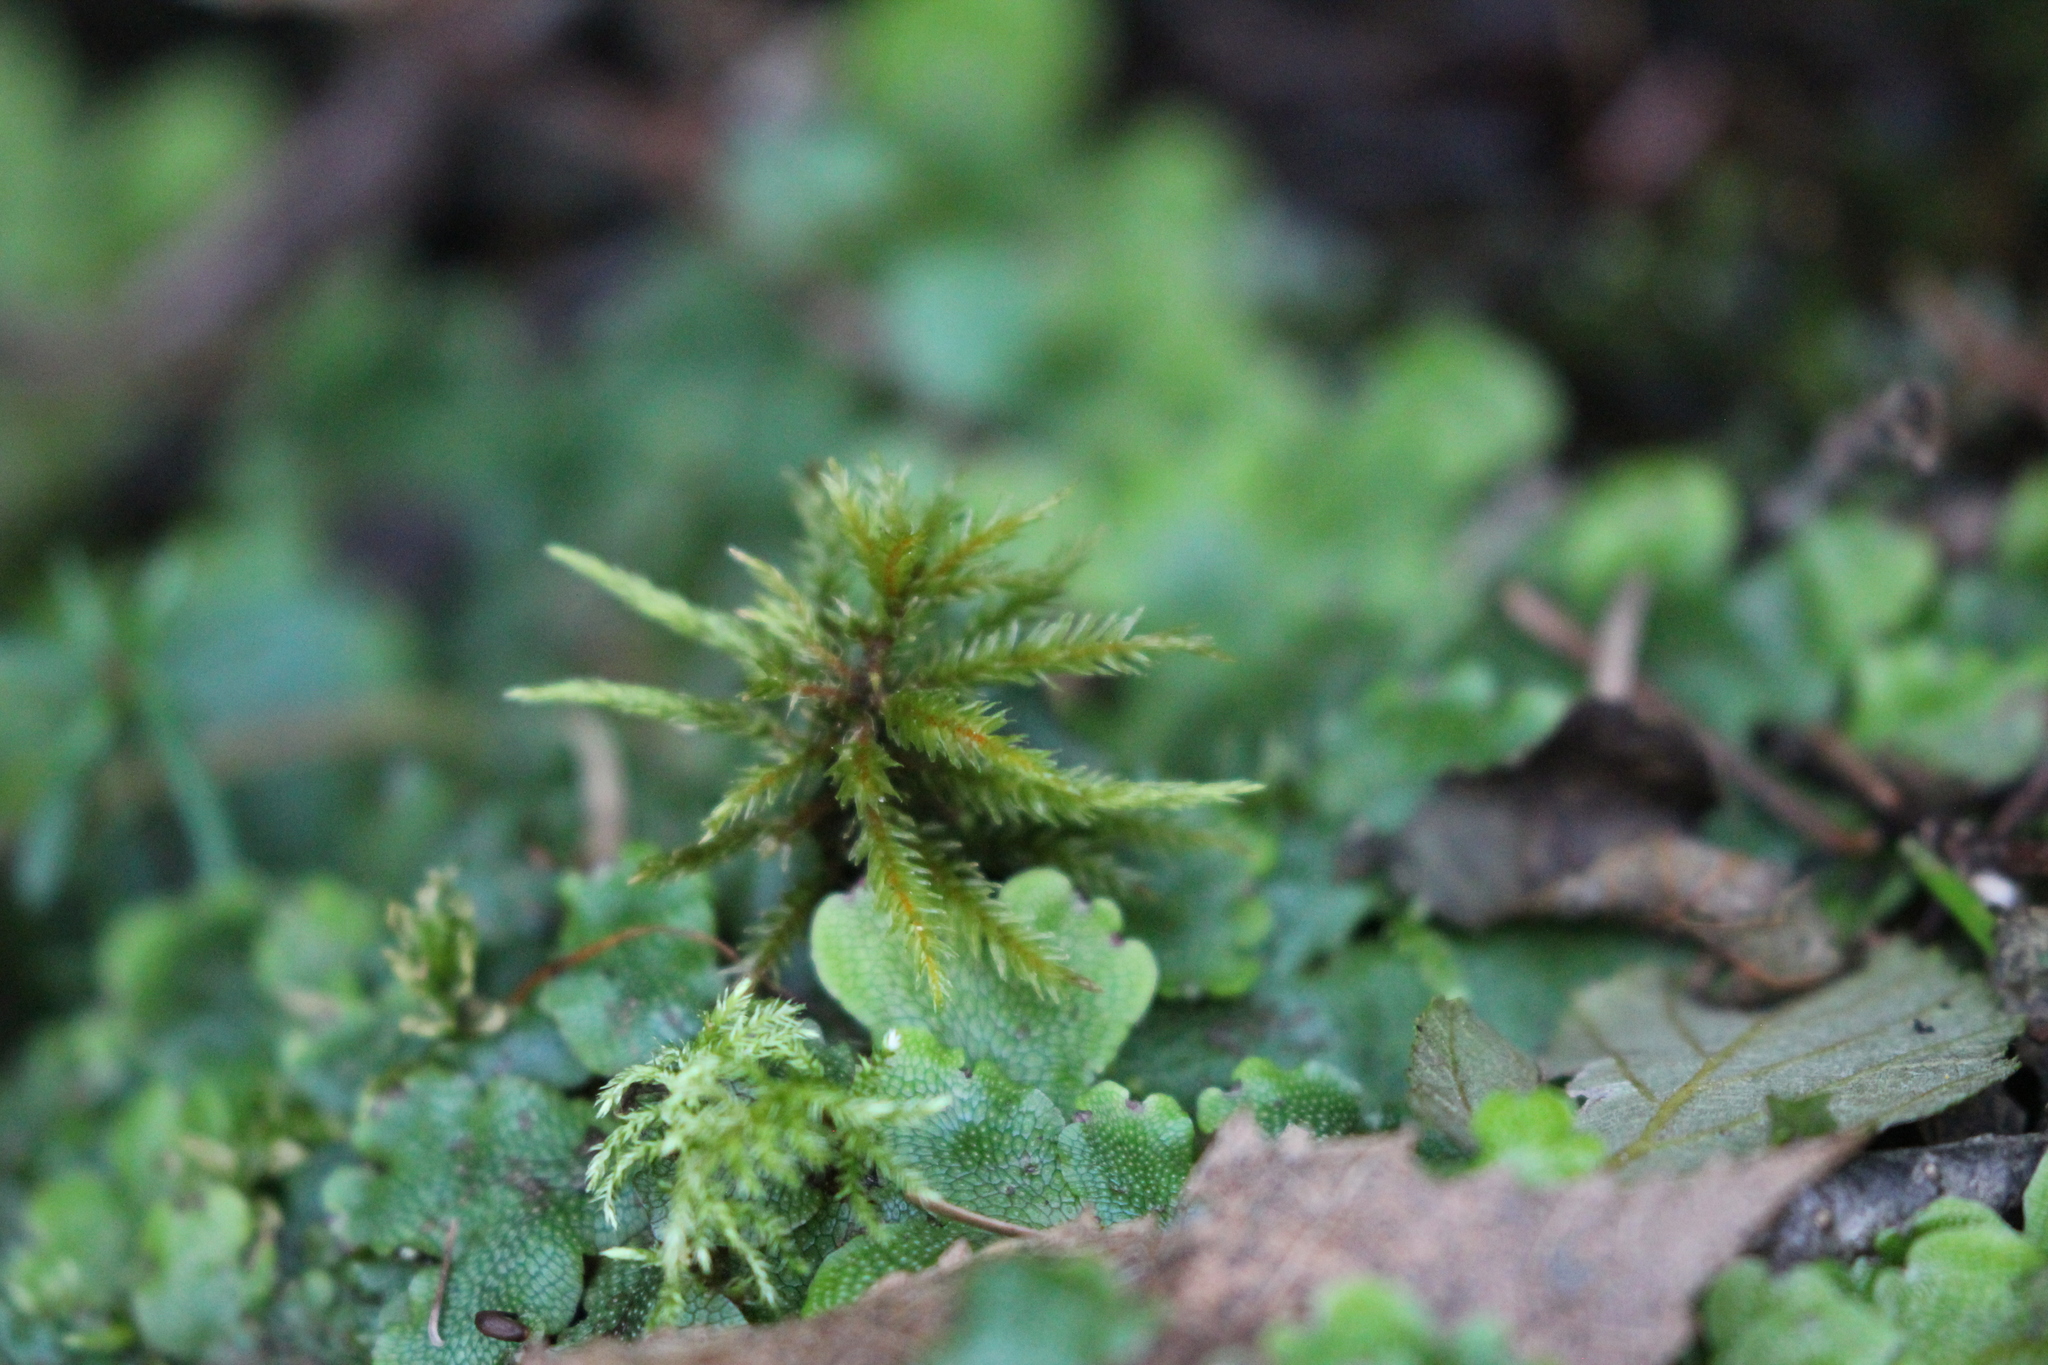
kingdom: Plantae
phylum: Bryophyta
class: Bryopsida
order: Hypnales
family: Climaciaceae
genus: Climacium
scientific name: Climacium dendroides
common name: Northern tree moss
